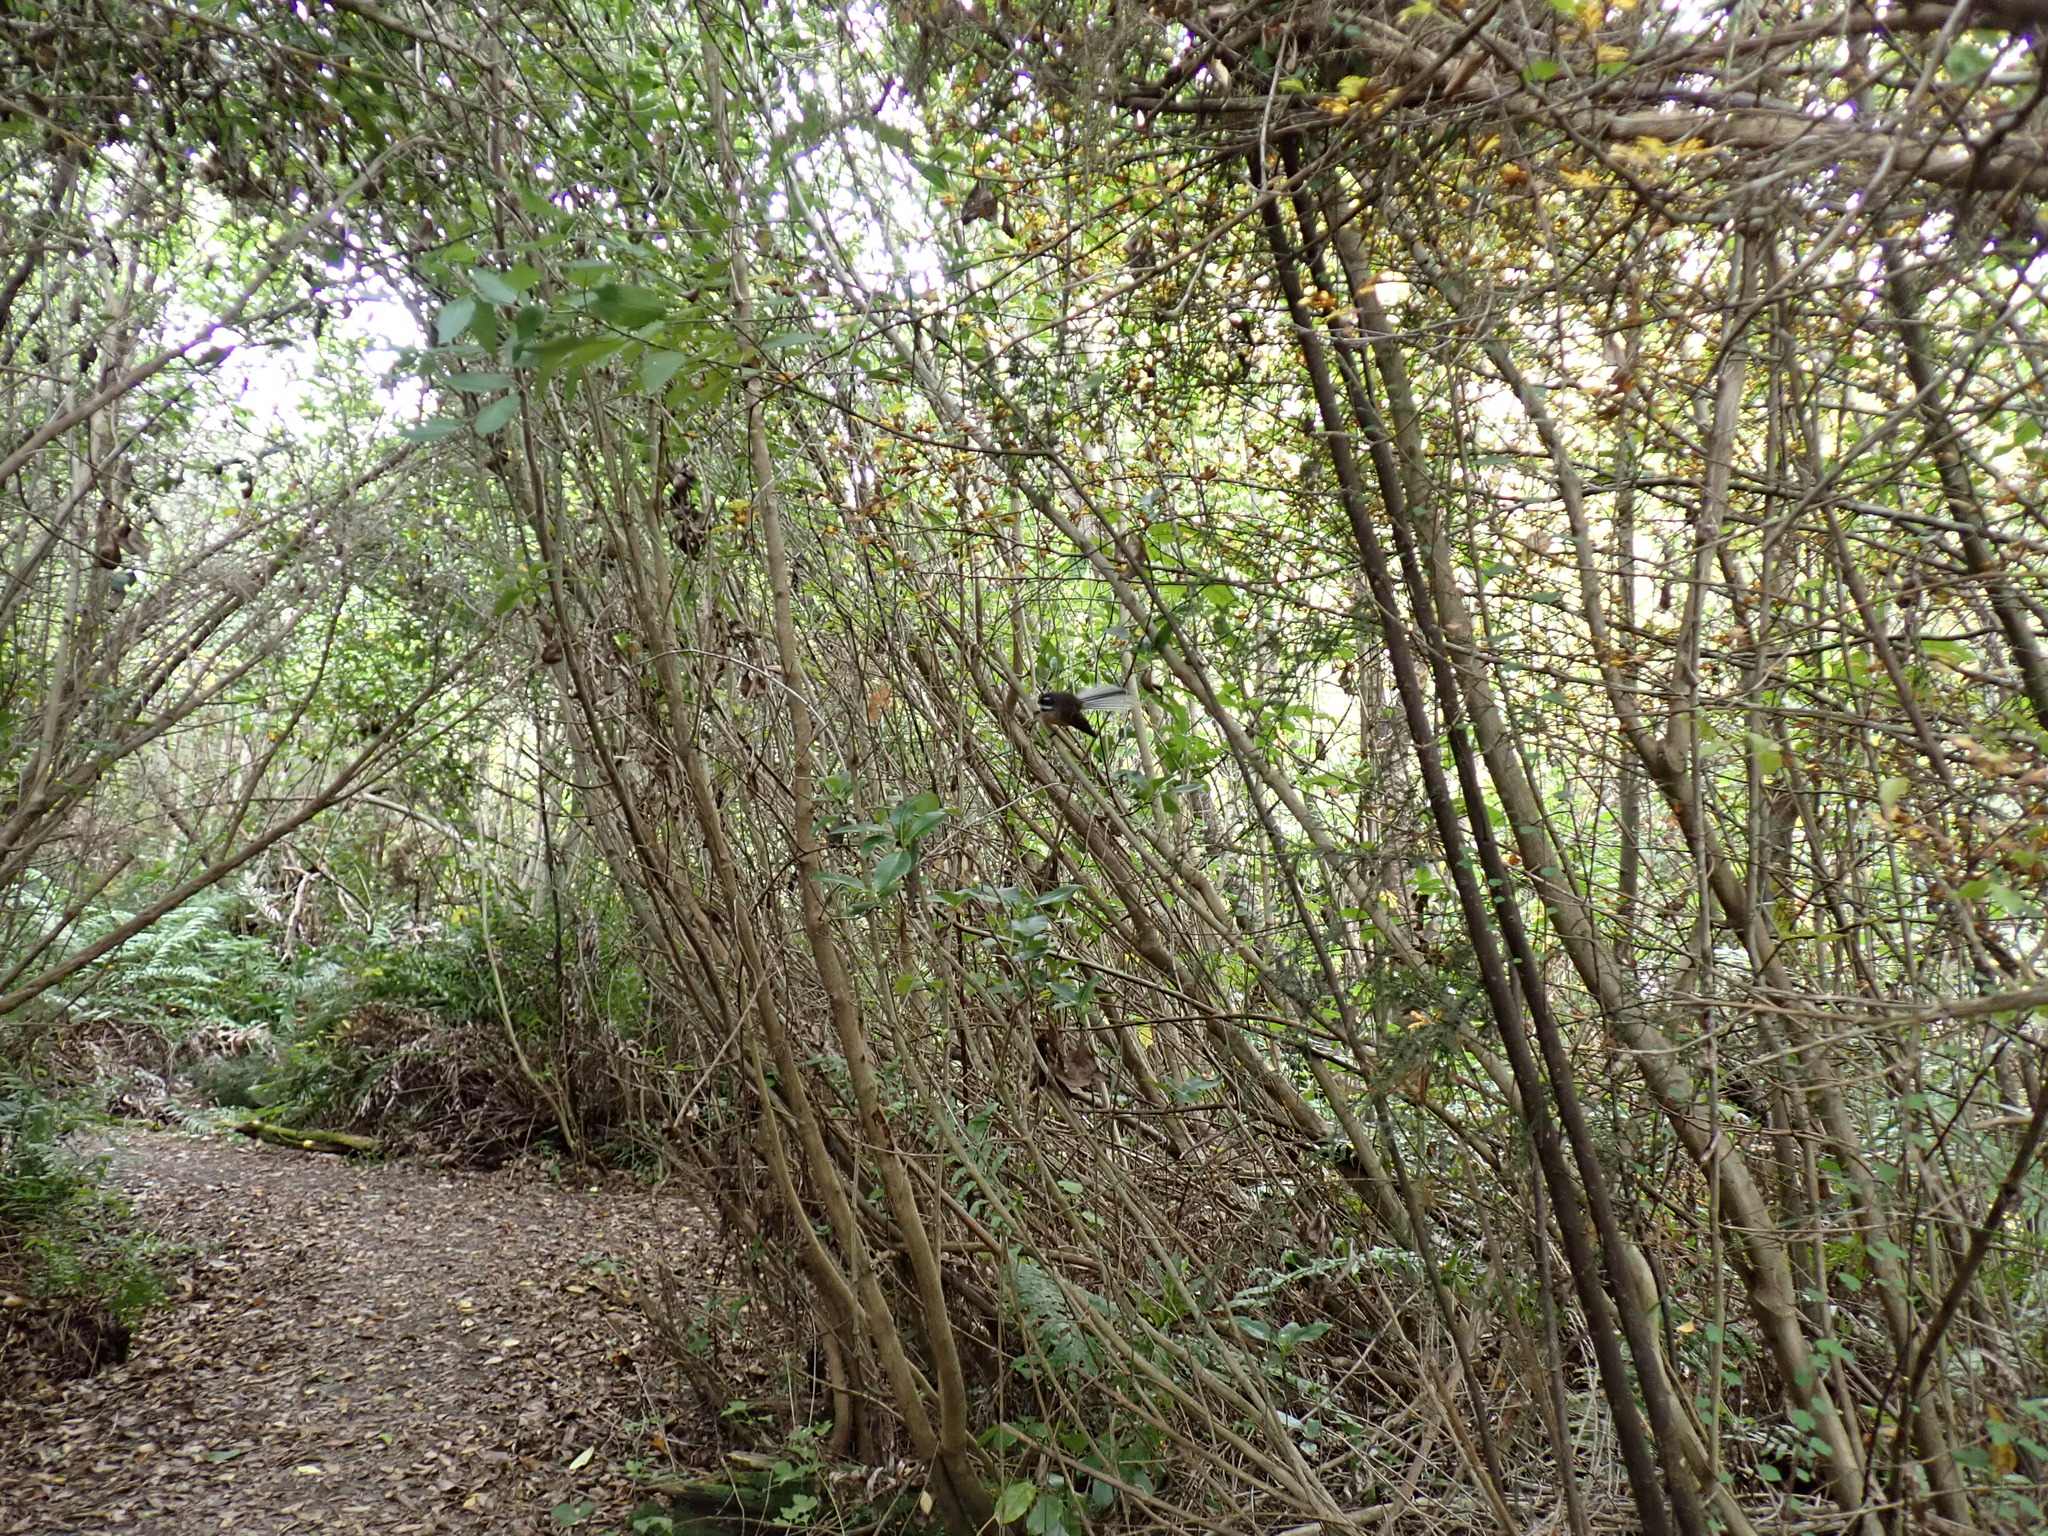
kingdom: Animalia
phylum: Chordata
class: Aves
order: Passeriformes
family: Rhipiduridae
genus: Rhipidura
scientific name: Rhipidura fuliginosa
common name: New zealand fantail
